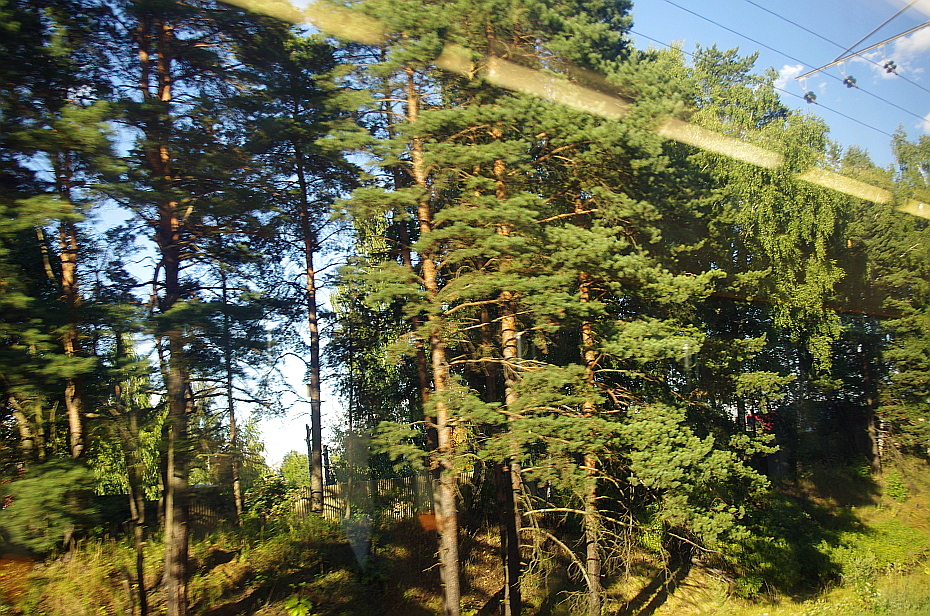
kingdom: Plantae
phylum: Tracheophyta
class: Pinopsida
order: Pinales
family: Pinaceae
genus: Pinus
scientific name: Pinus sylvestris
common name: Scots pine
